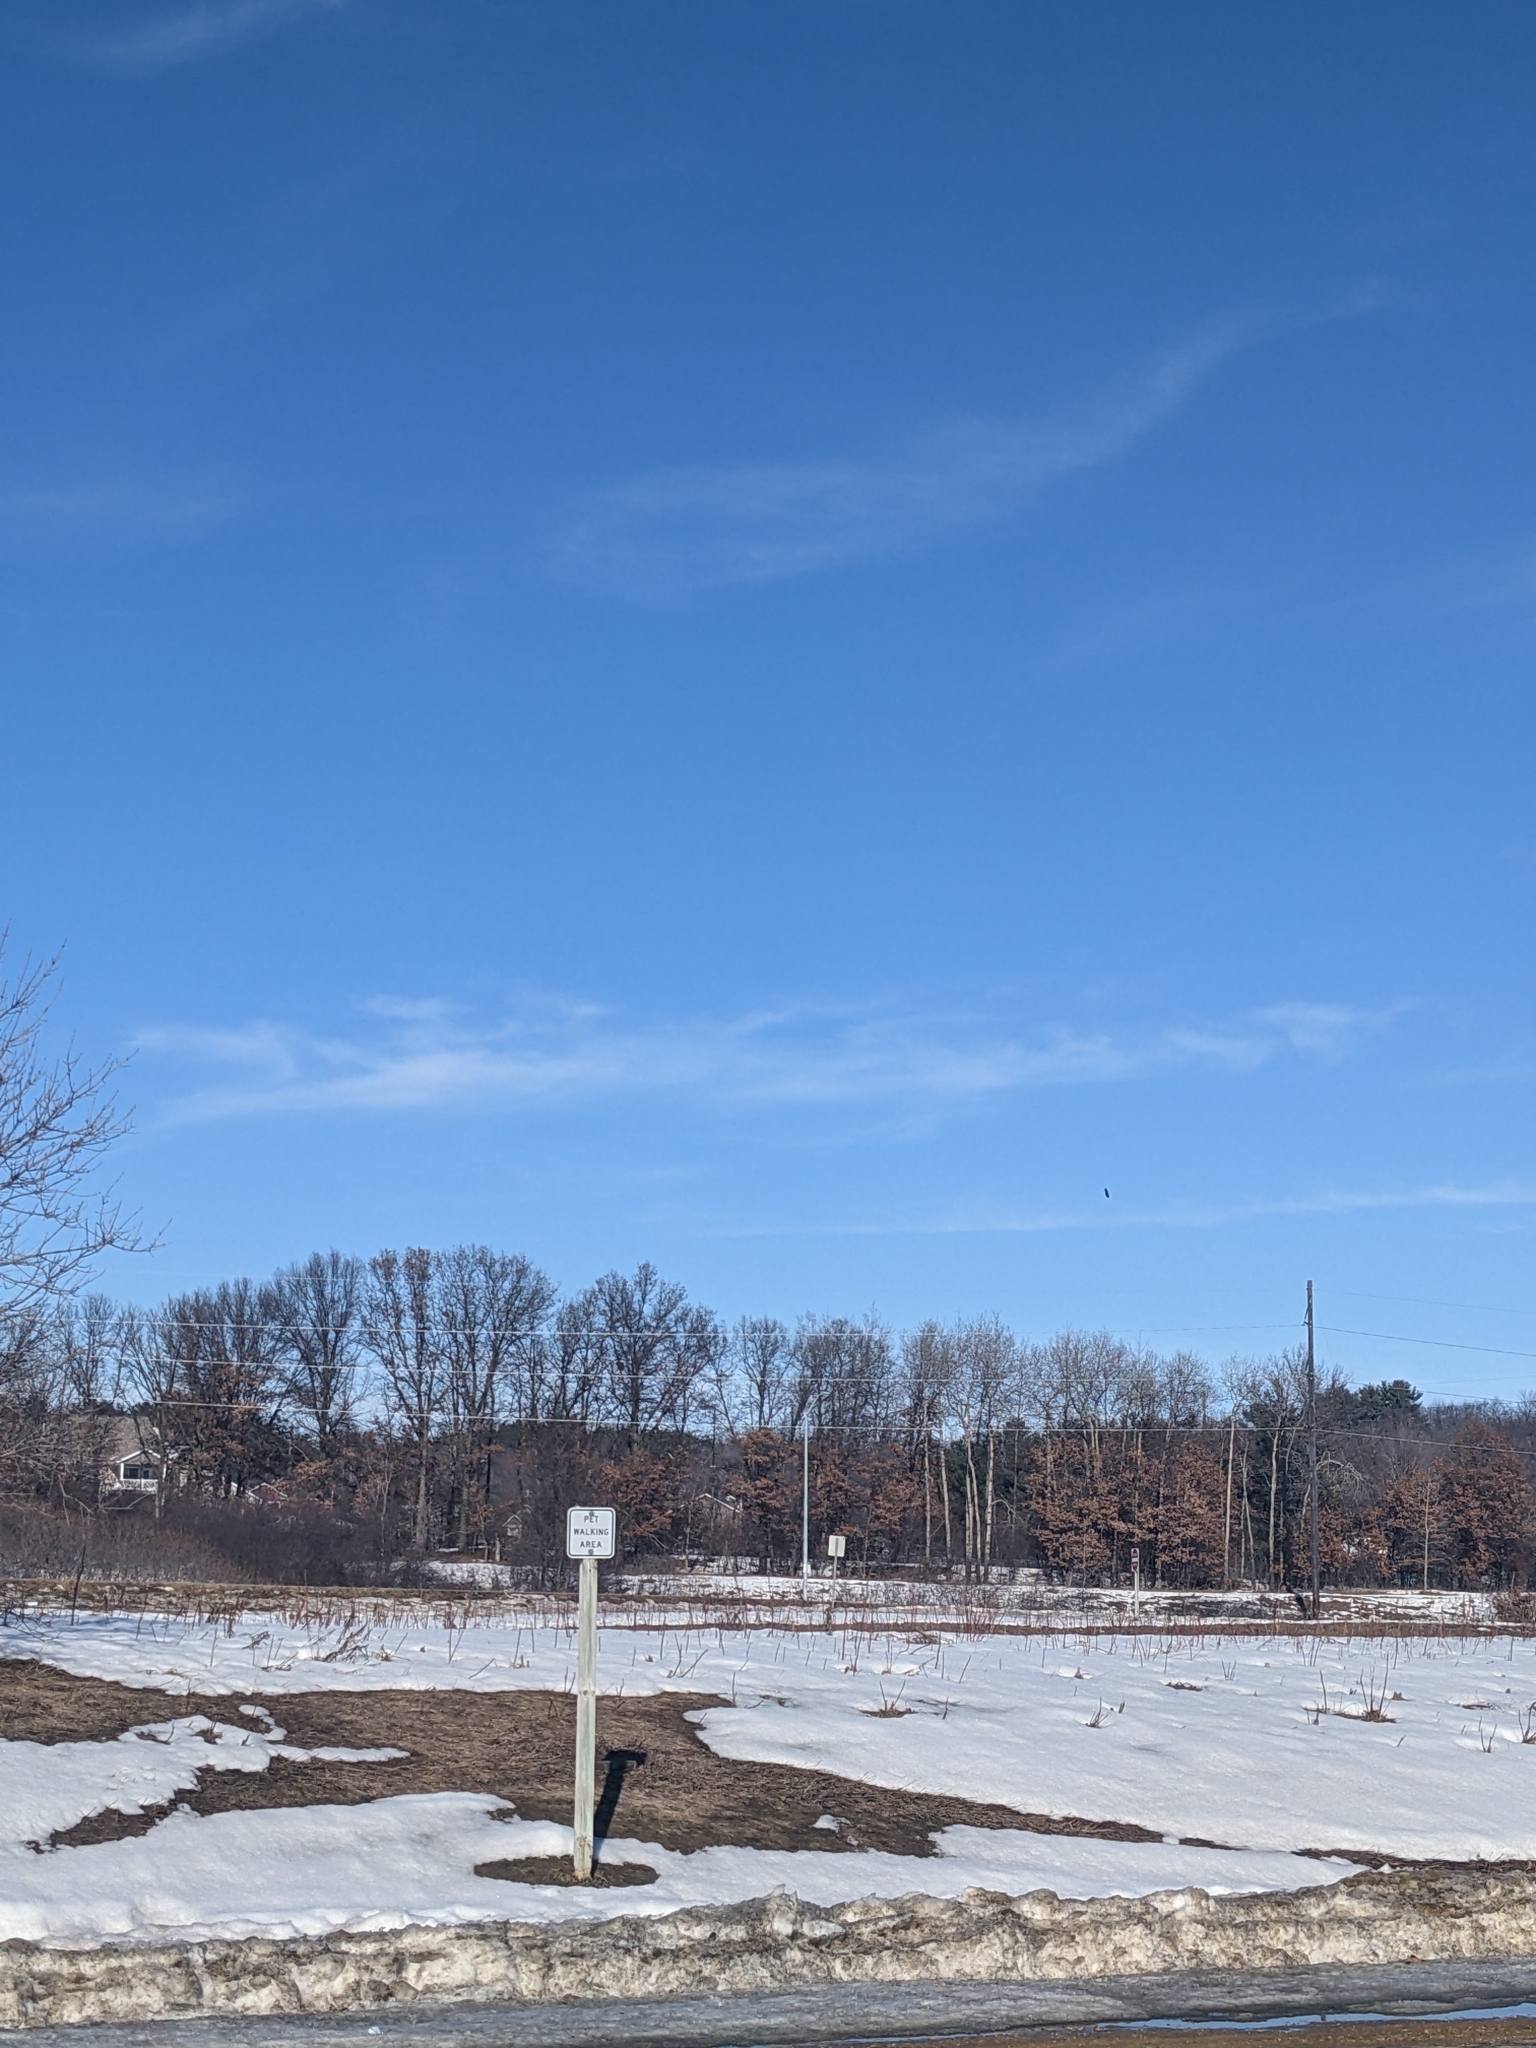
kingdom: Animalia
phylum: Chordata
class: Aves
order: Accipitriformes
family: Accipitridae
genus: Haliaeetus
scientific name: Haliaeetus leucocephalus
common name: Bald eagle
